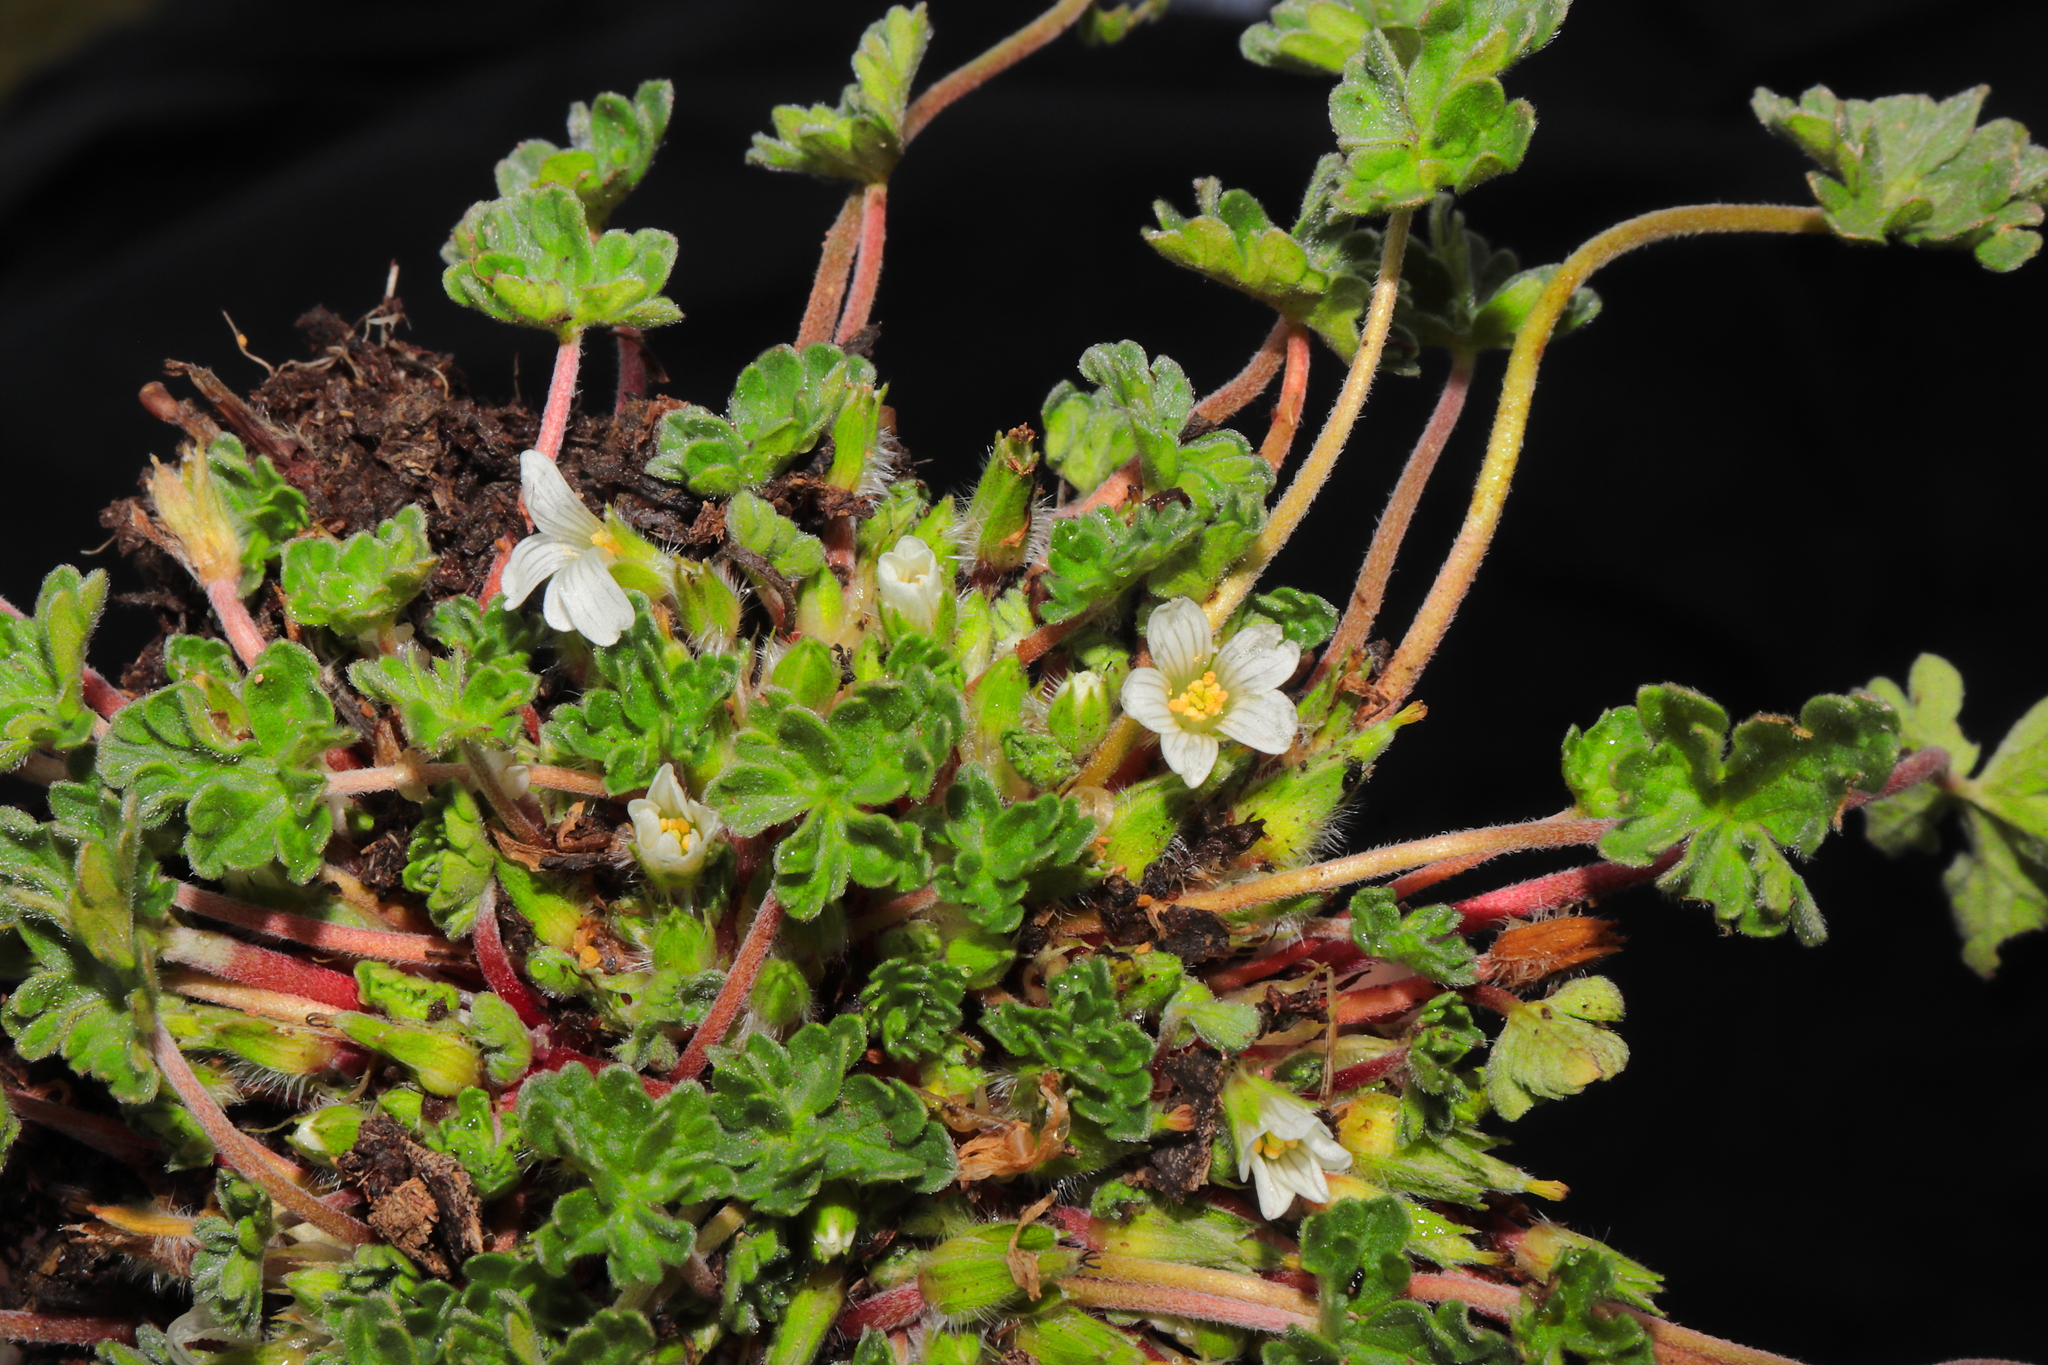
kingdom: Plantae
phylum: Tracheophyta
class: Magnoliopsida
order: Geraniales
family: Geraniaceae
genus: Geranium
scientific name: Geranium sessiliflorum
